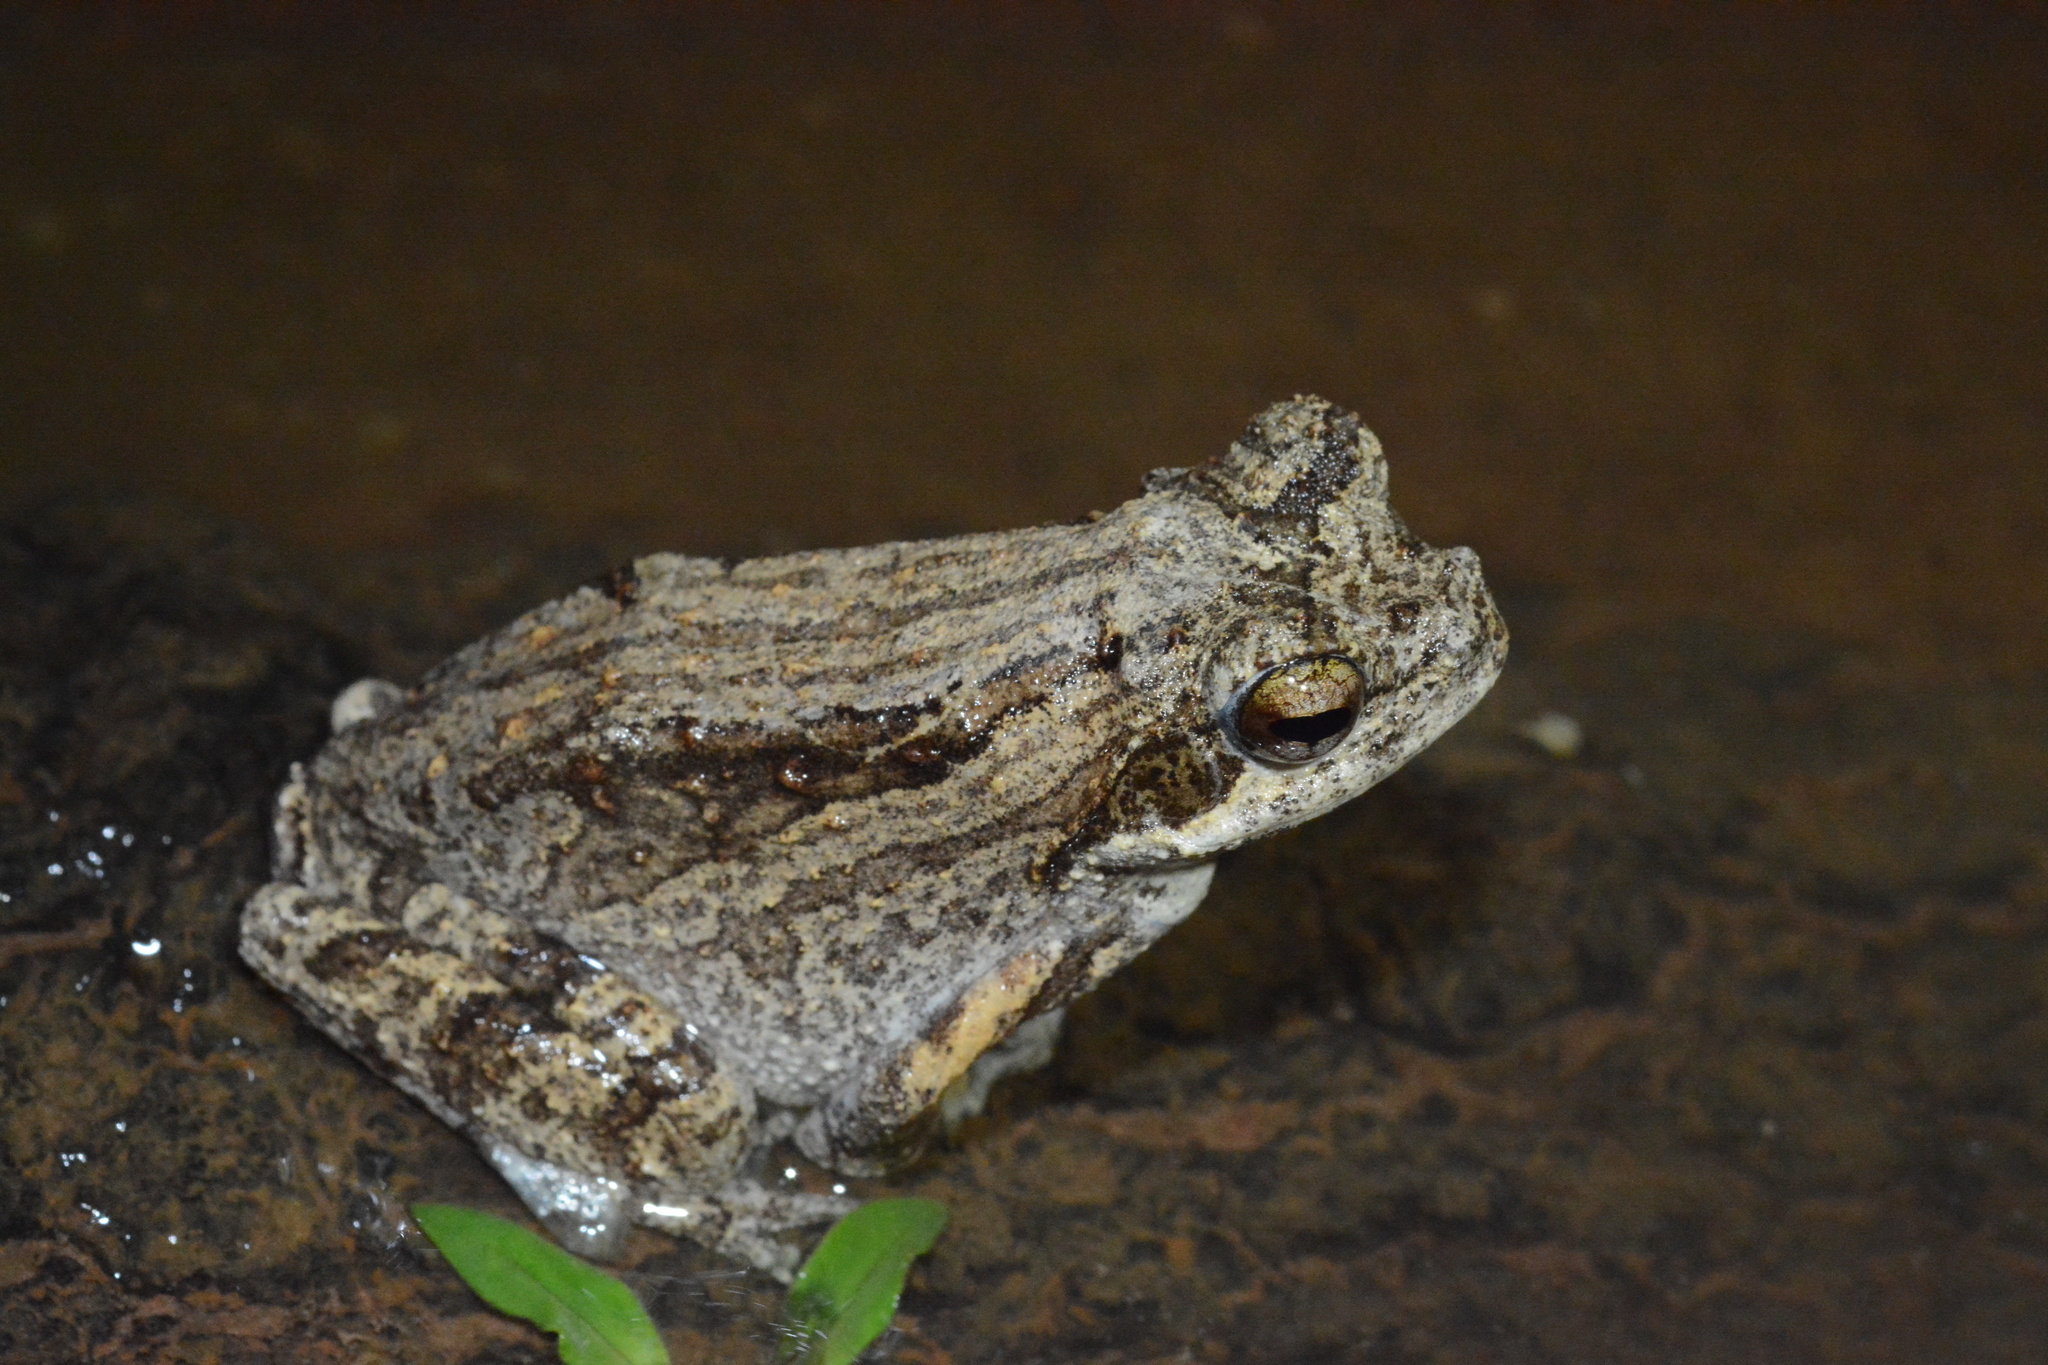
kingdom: Animalia
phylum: Chordata
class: Amphibia
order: Anura
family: Rhacophoridae
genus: Chiromantis
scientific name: Chiromantis petersii
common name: Central foam-nest tree frog
